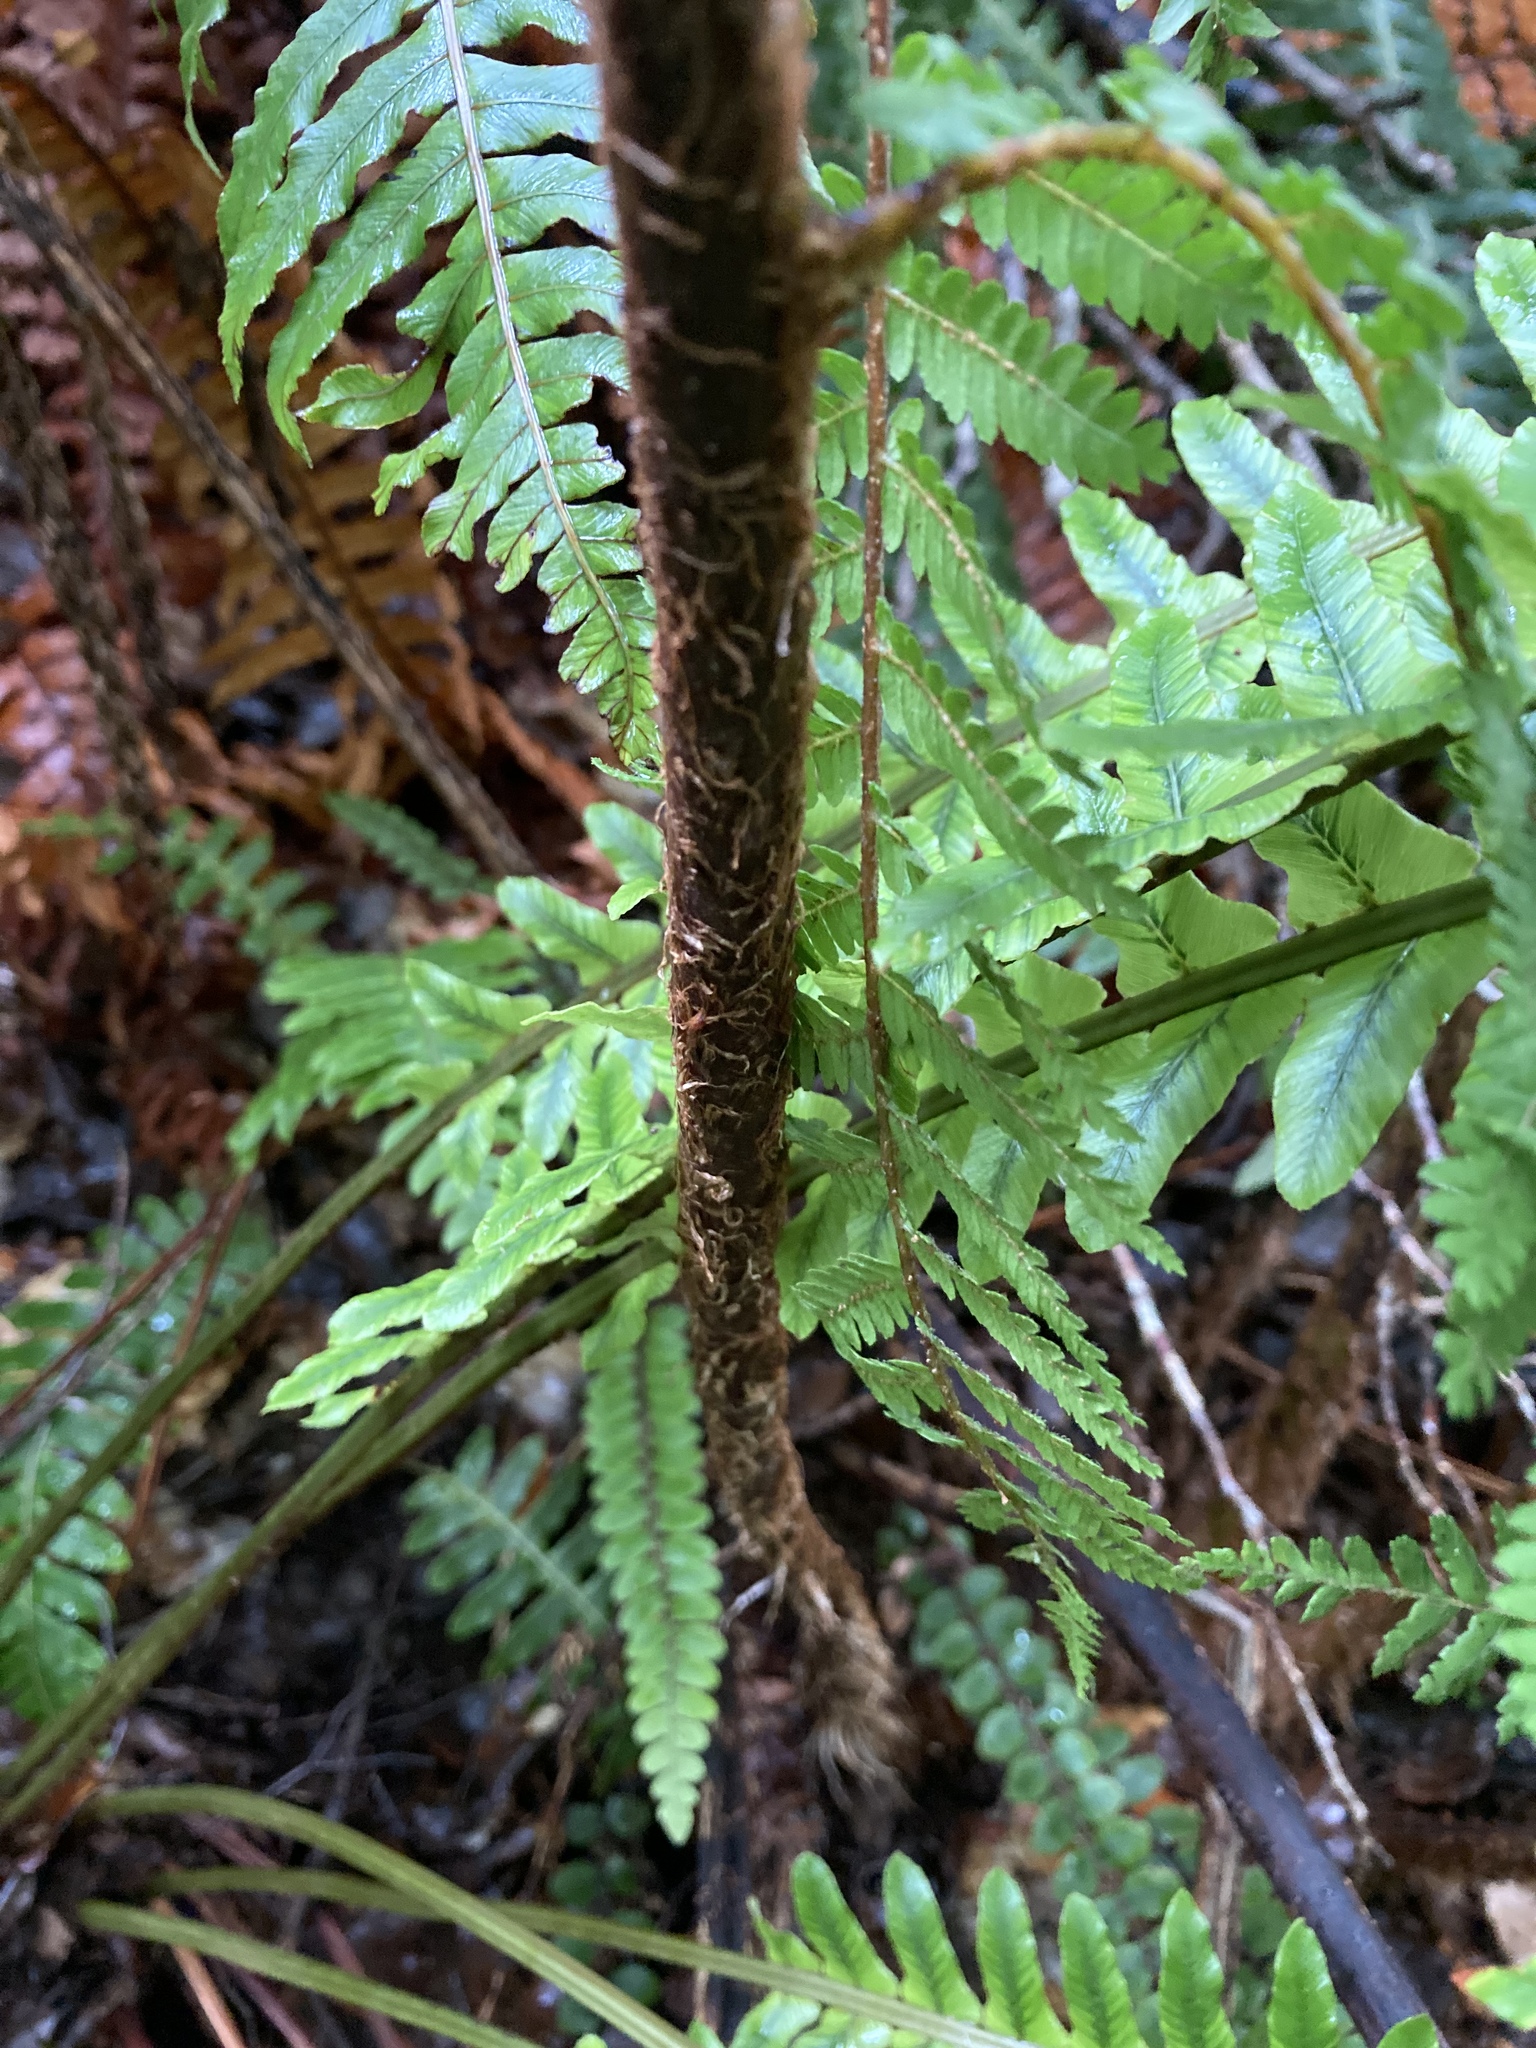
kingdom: Plantae
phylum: Tracheophyta
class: Polypodiopsida
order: Cyatheales
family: Cyatheaceae
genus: Alsophila
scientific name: Alsophila smithii
